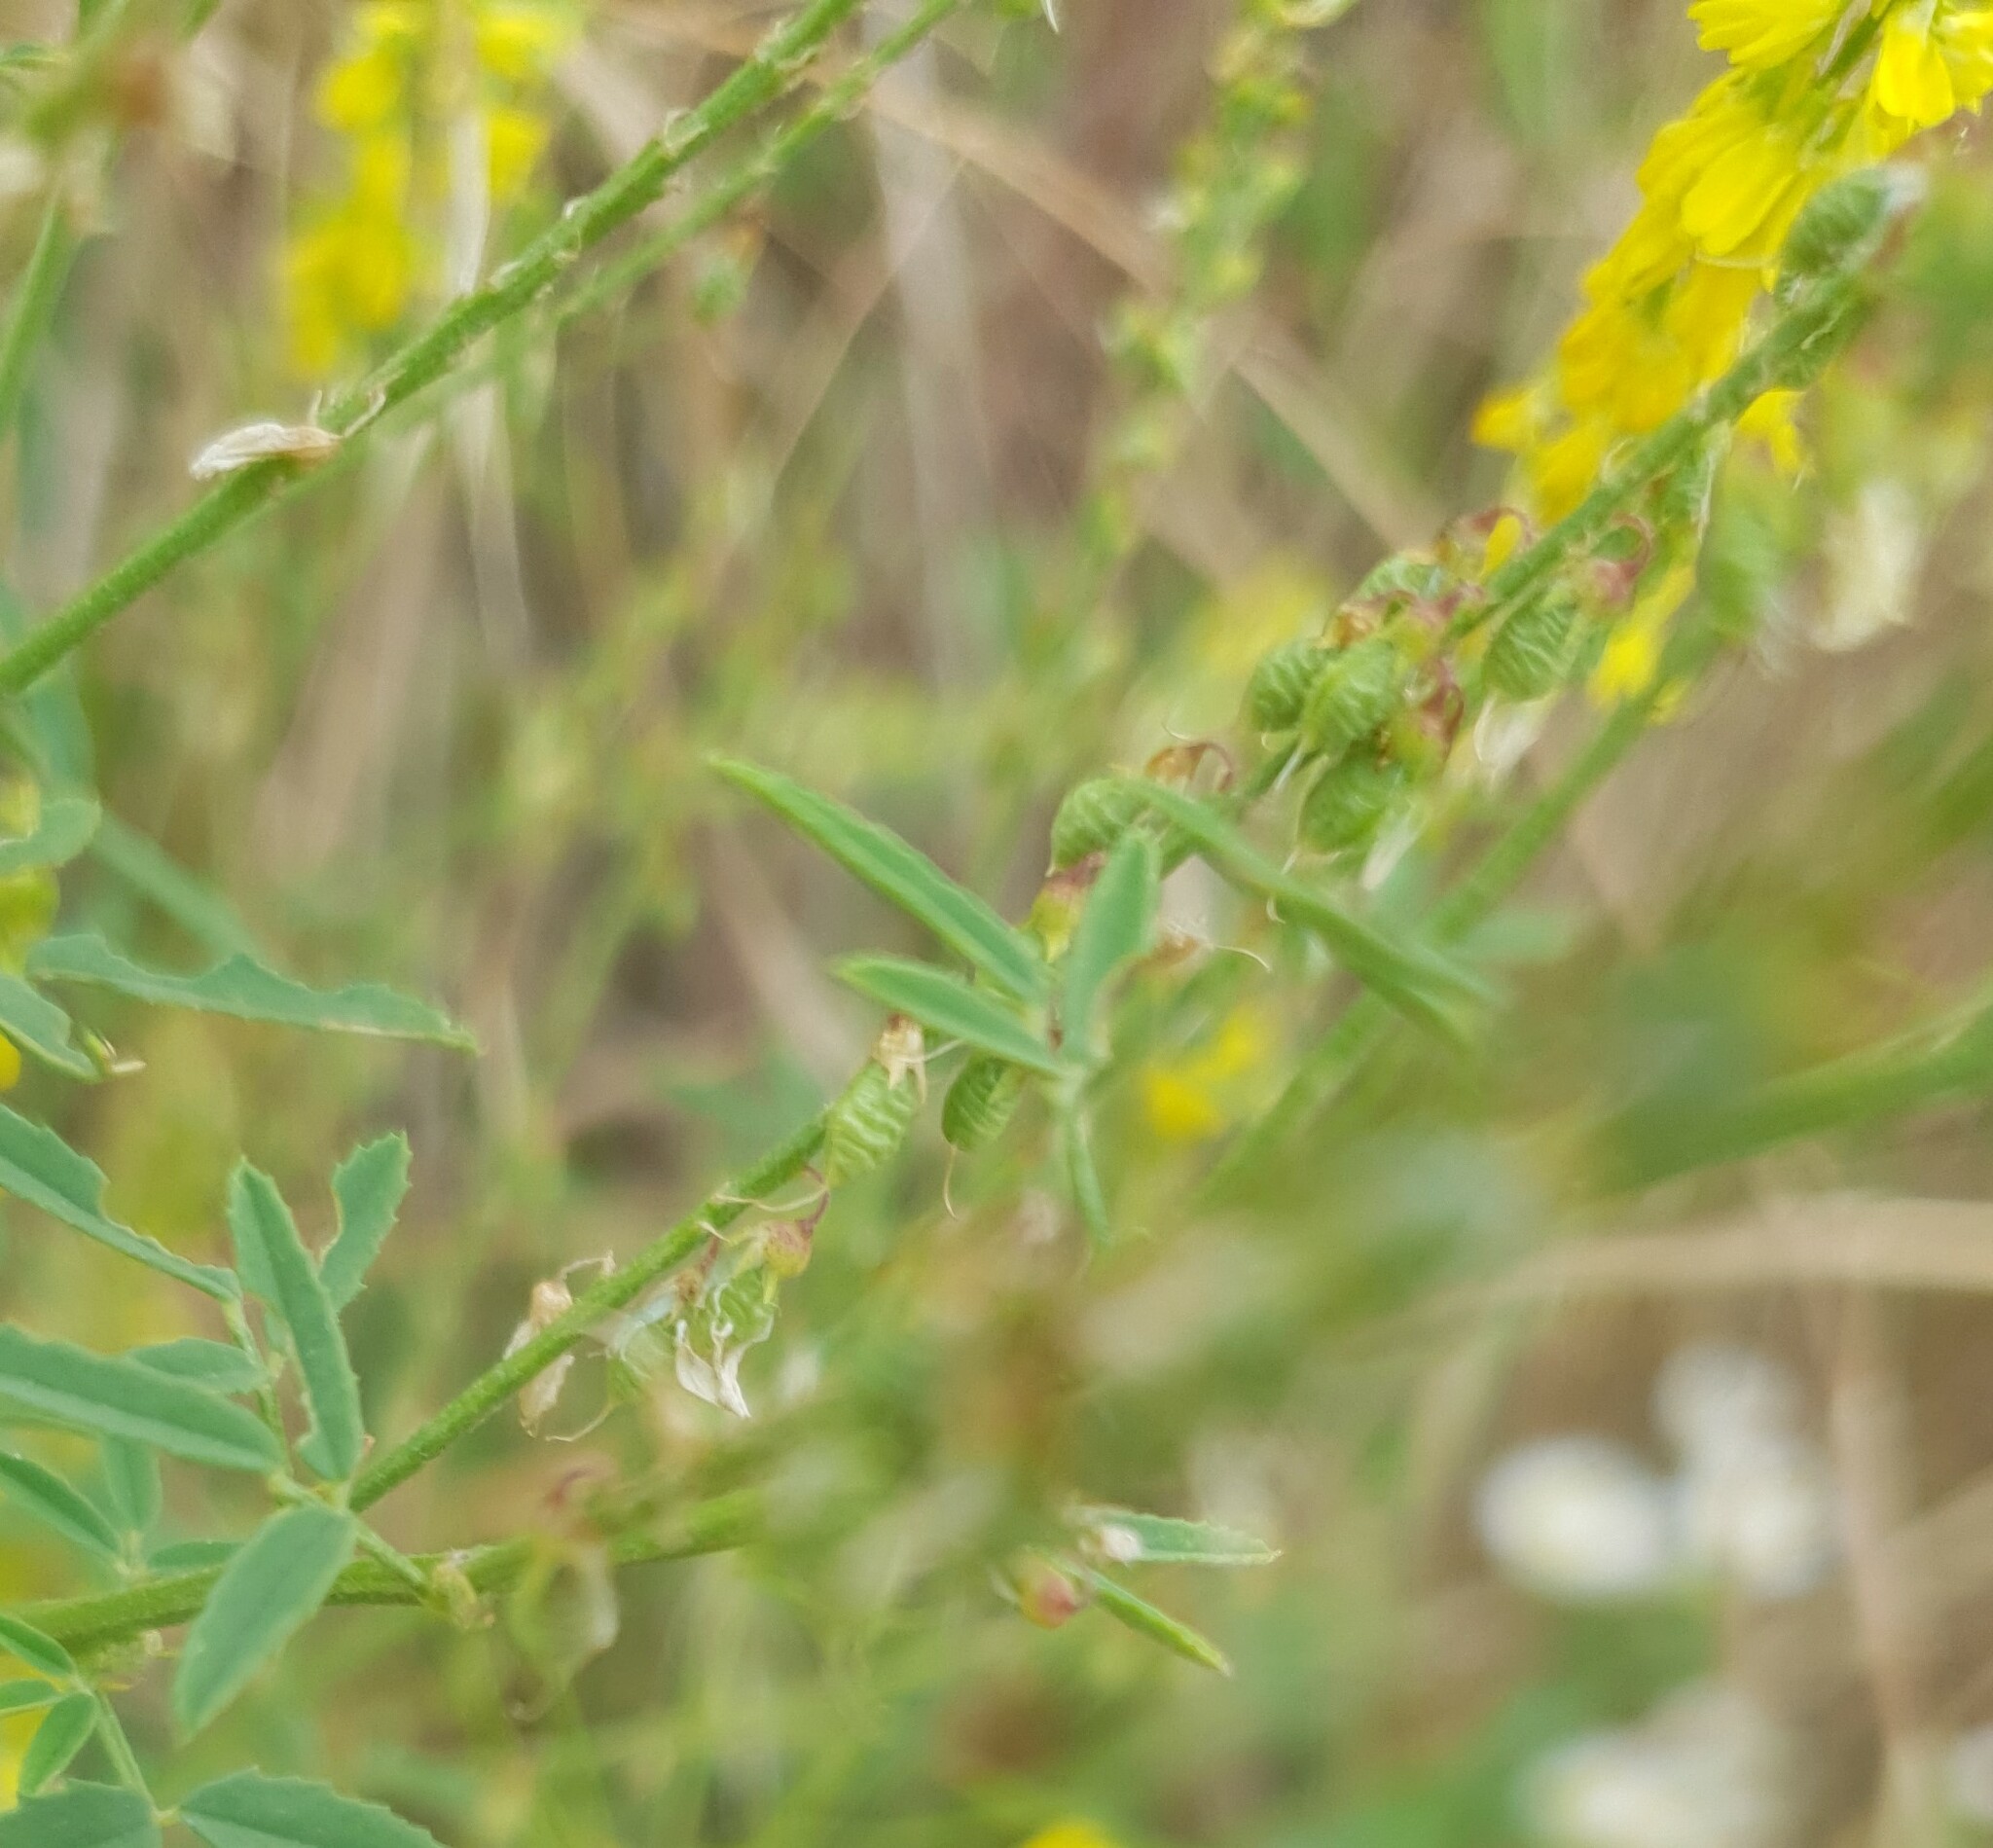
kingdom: Plantae
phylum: Tracheophyta
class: Magnoliopsida
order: Fabales
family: Fabaceae
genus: Melilotus
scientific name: Melilotus officinalis
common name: Sweetclover
